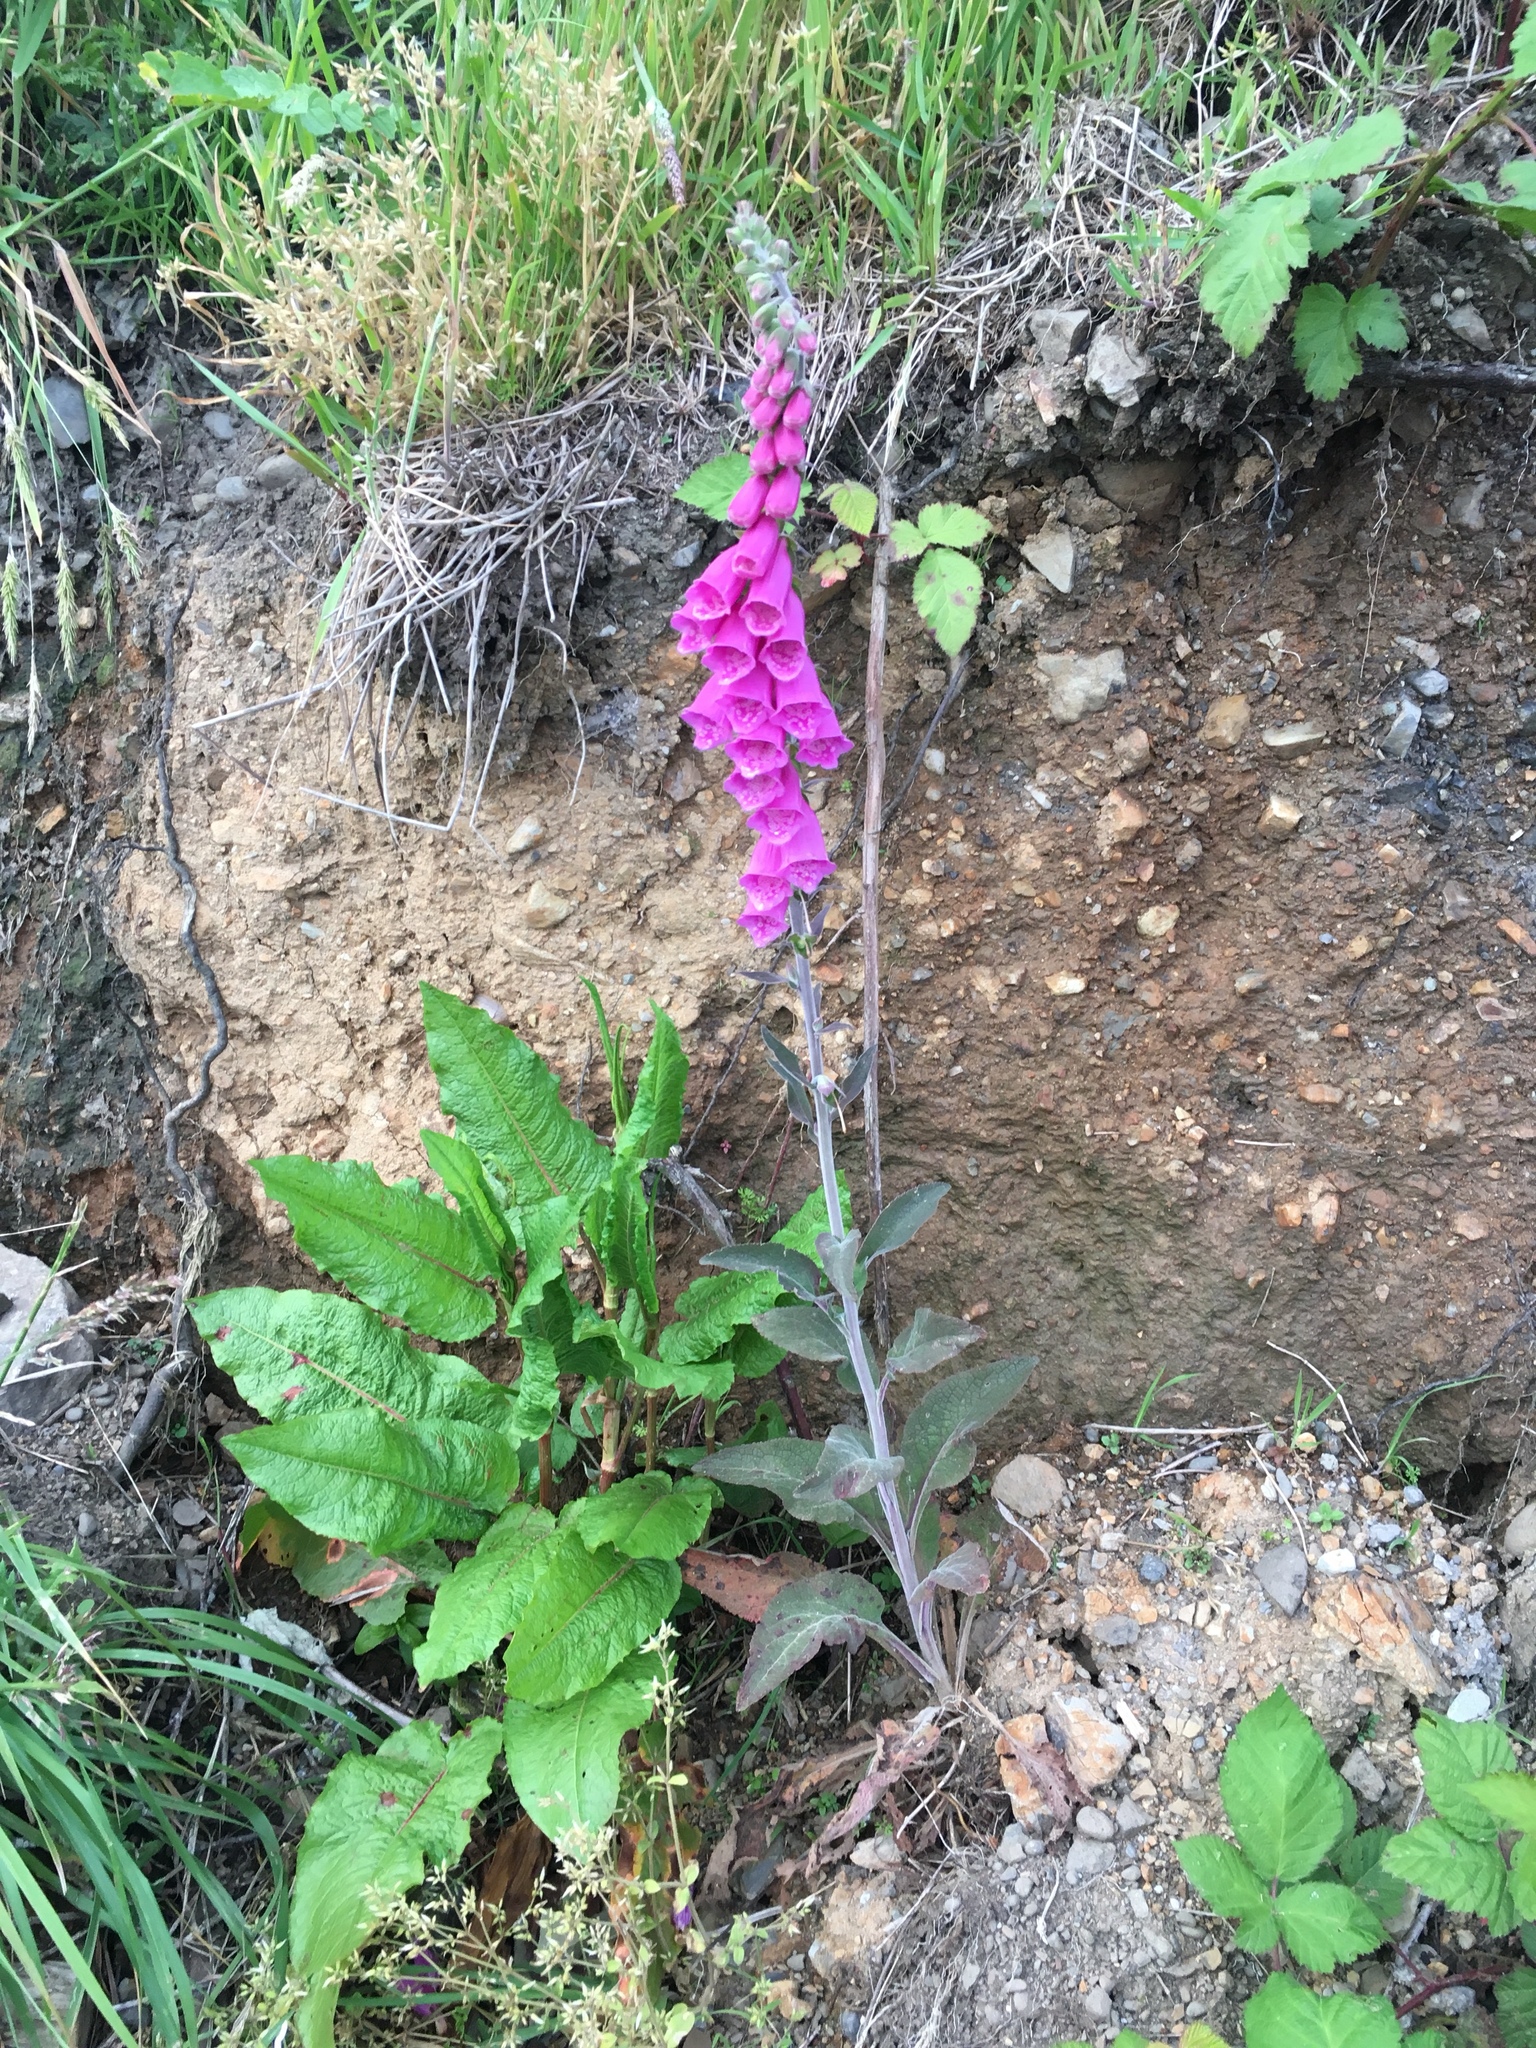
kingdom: Plantae
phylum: Tracheophyta
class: Magnoliopsida
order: Lamiales
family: Plantaginaceae
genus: Digitalis
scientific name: Digitalis purpurea
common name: Foxglove
